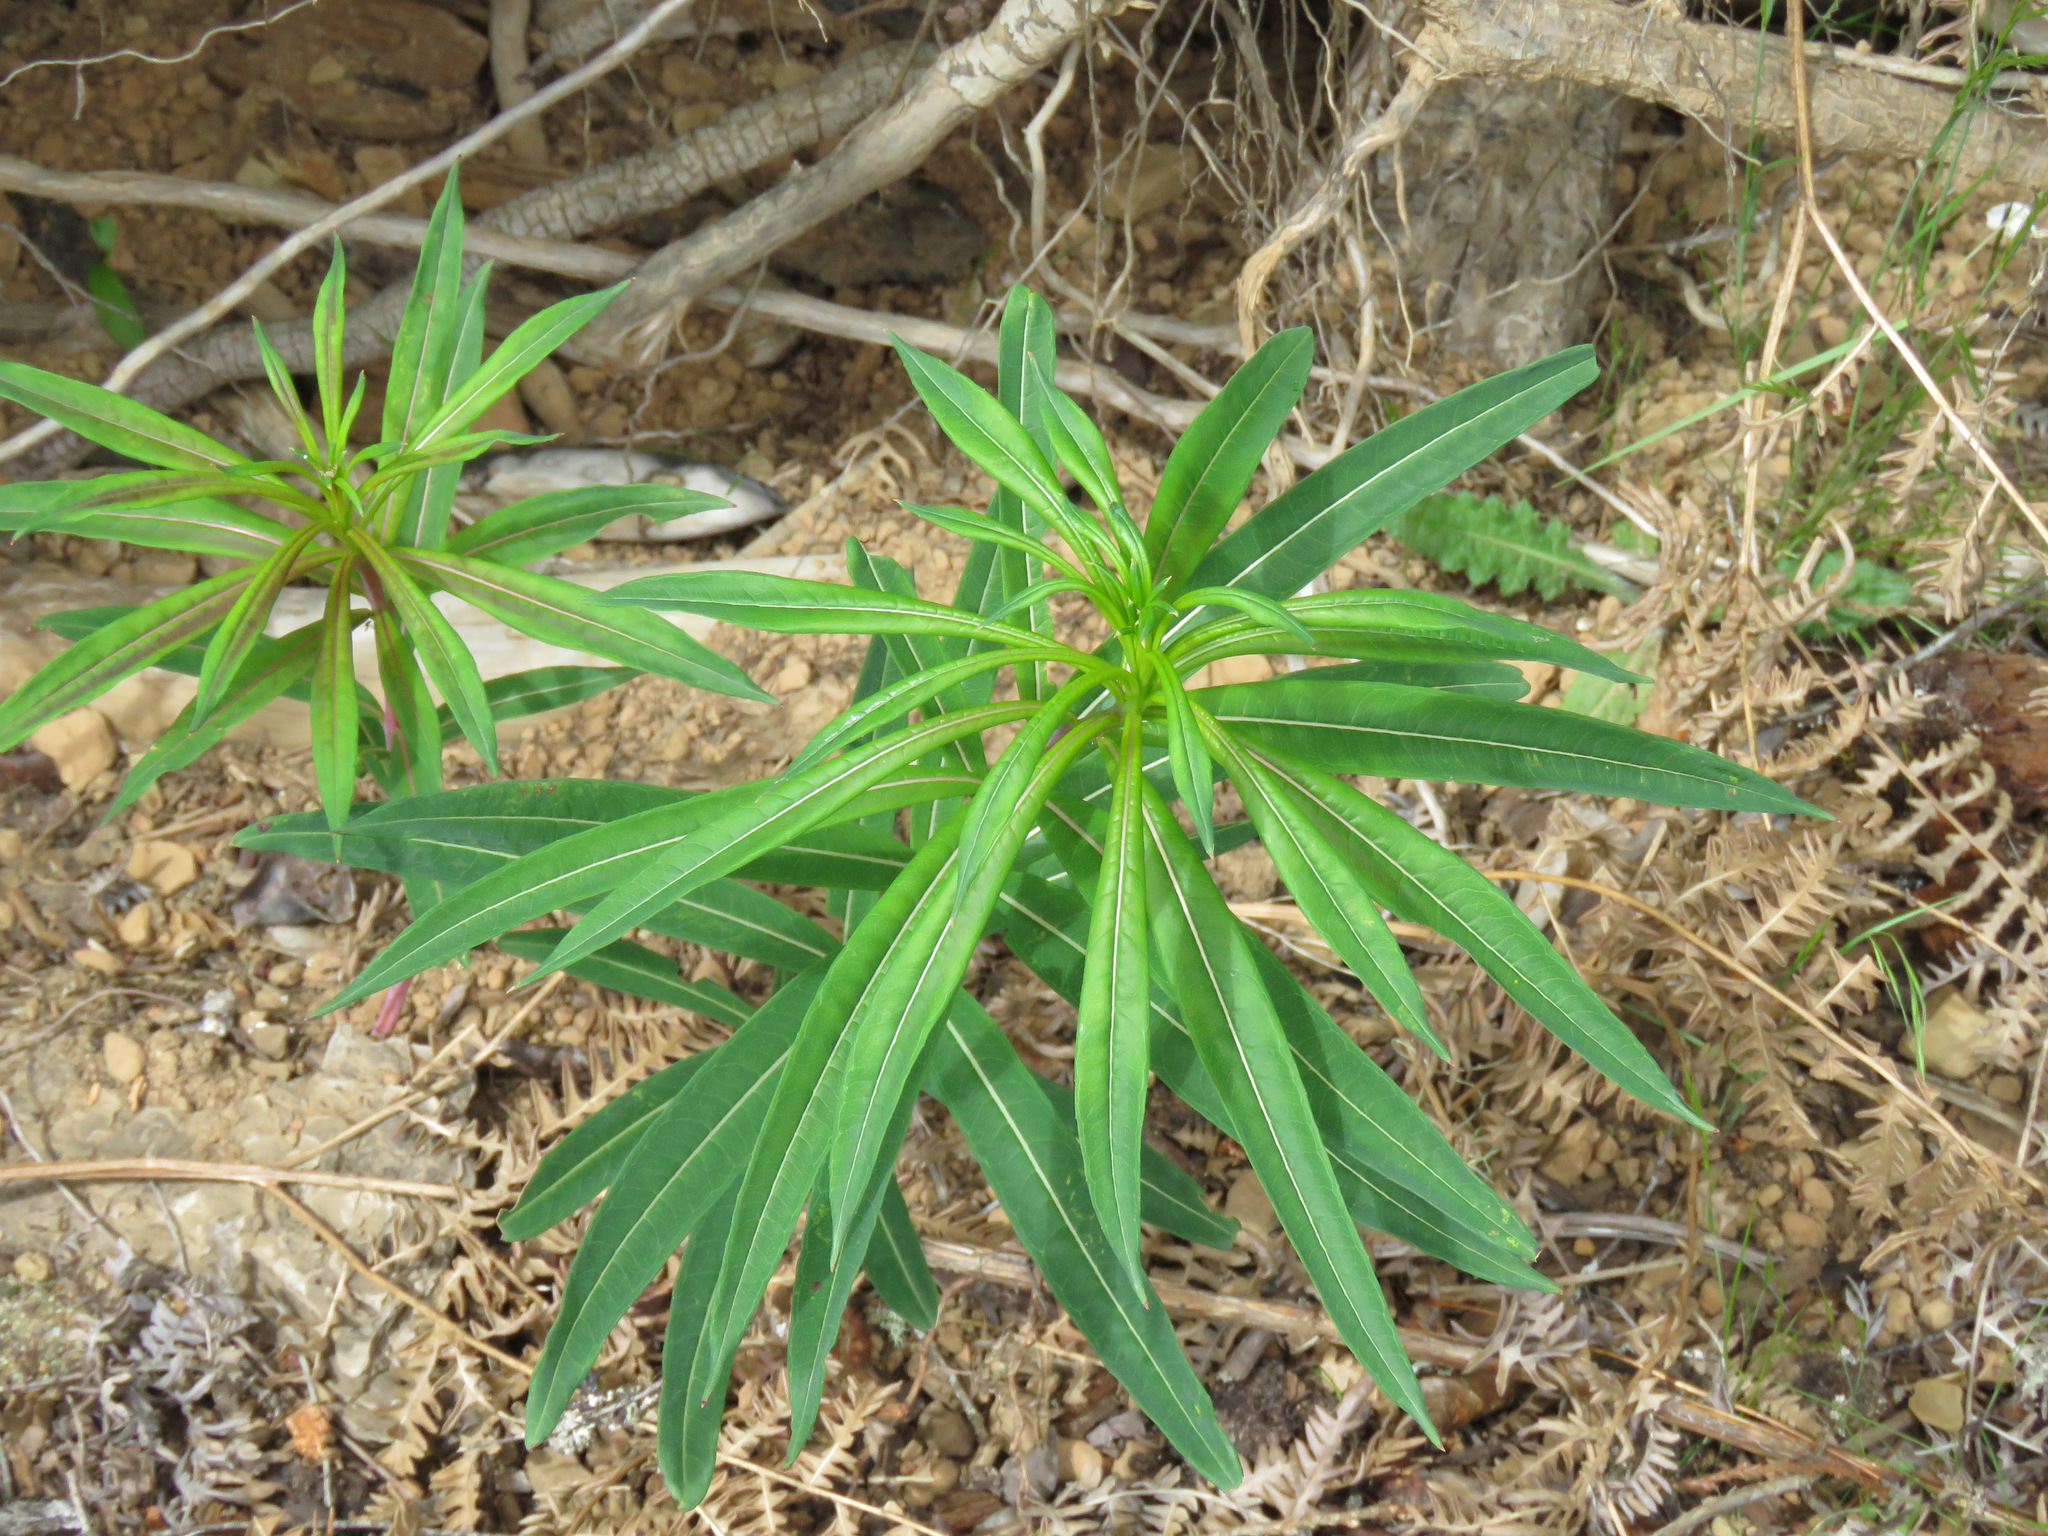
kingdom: Plantae
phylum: Tracheophyta
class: Magnoliopsida
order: Myrtales
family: Onagraceae
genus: Chamaenerion
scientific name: Chamaenerion angustifolium
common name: Fireweed
